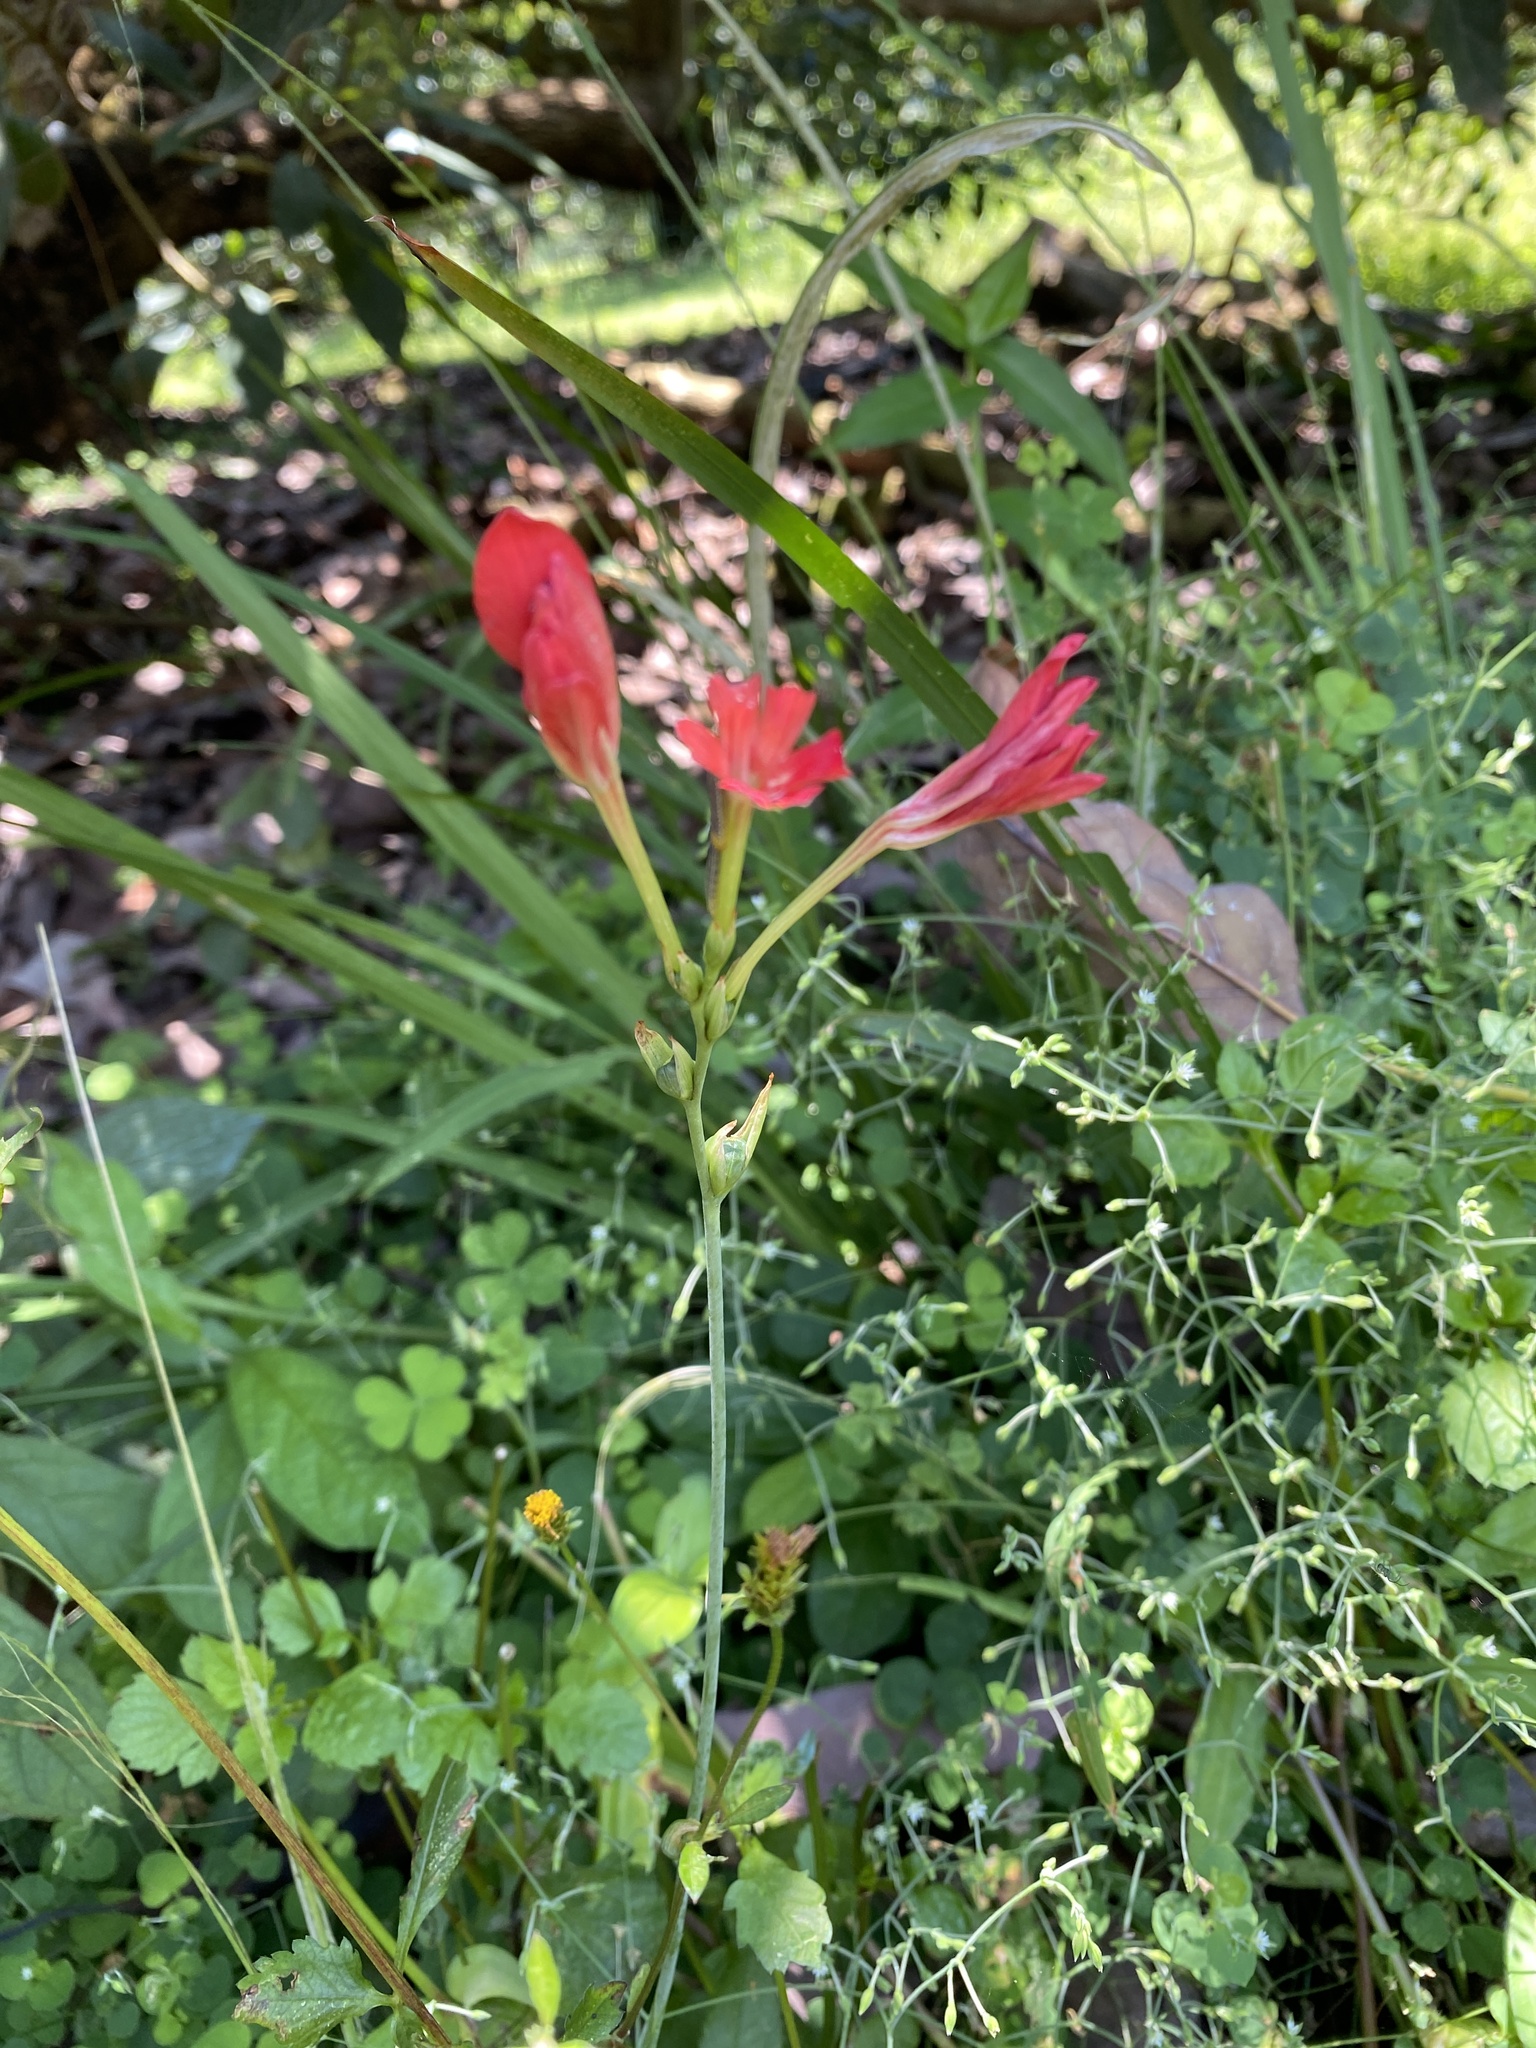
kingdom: Plantae
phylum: Tracheophyta
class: Liliopsida
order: Asparagales
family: Iridaceae
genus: Freesia
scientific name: Freesia grandiflora
